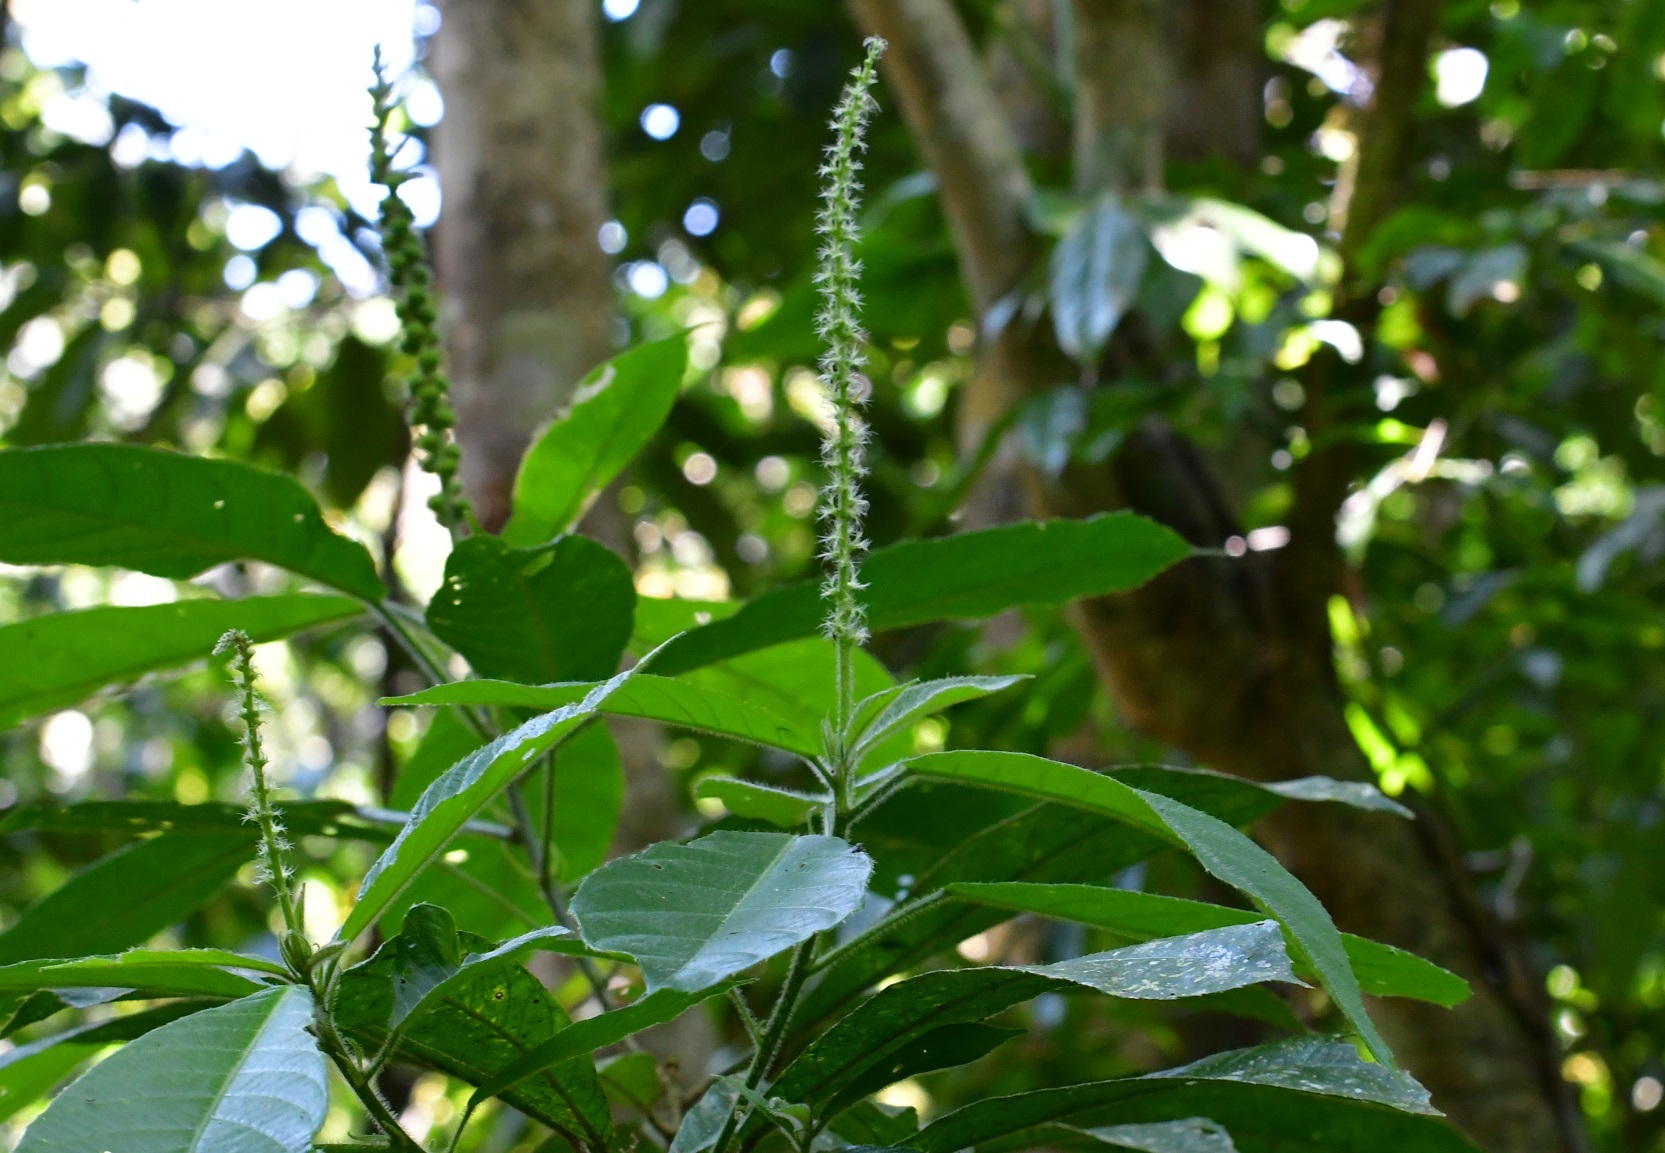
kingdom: Plantae
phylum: Tracheophyta
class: Magnoliopsida
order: Malpighiales
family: Euphorbiaceae
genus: Acalypha
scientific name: Acalypha skutchii
